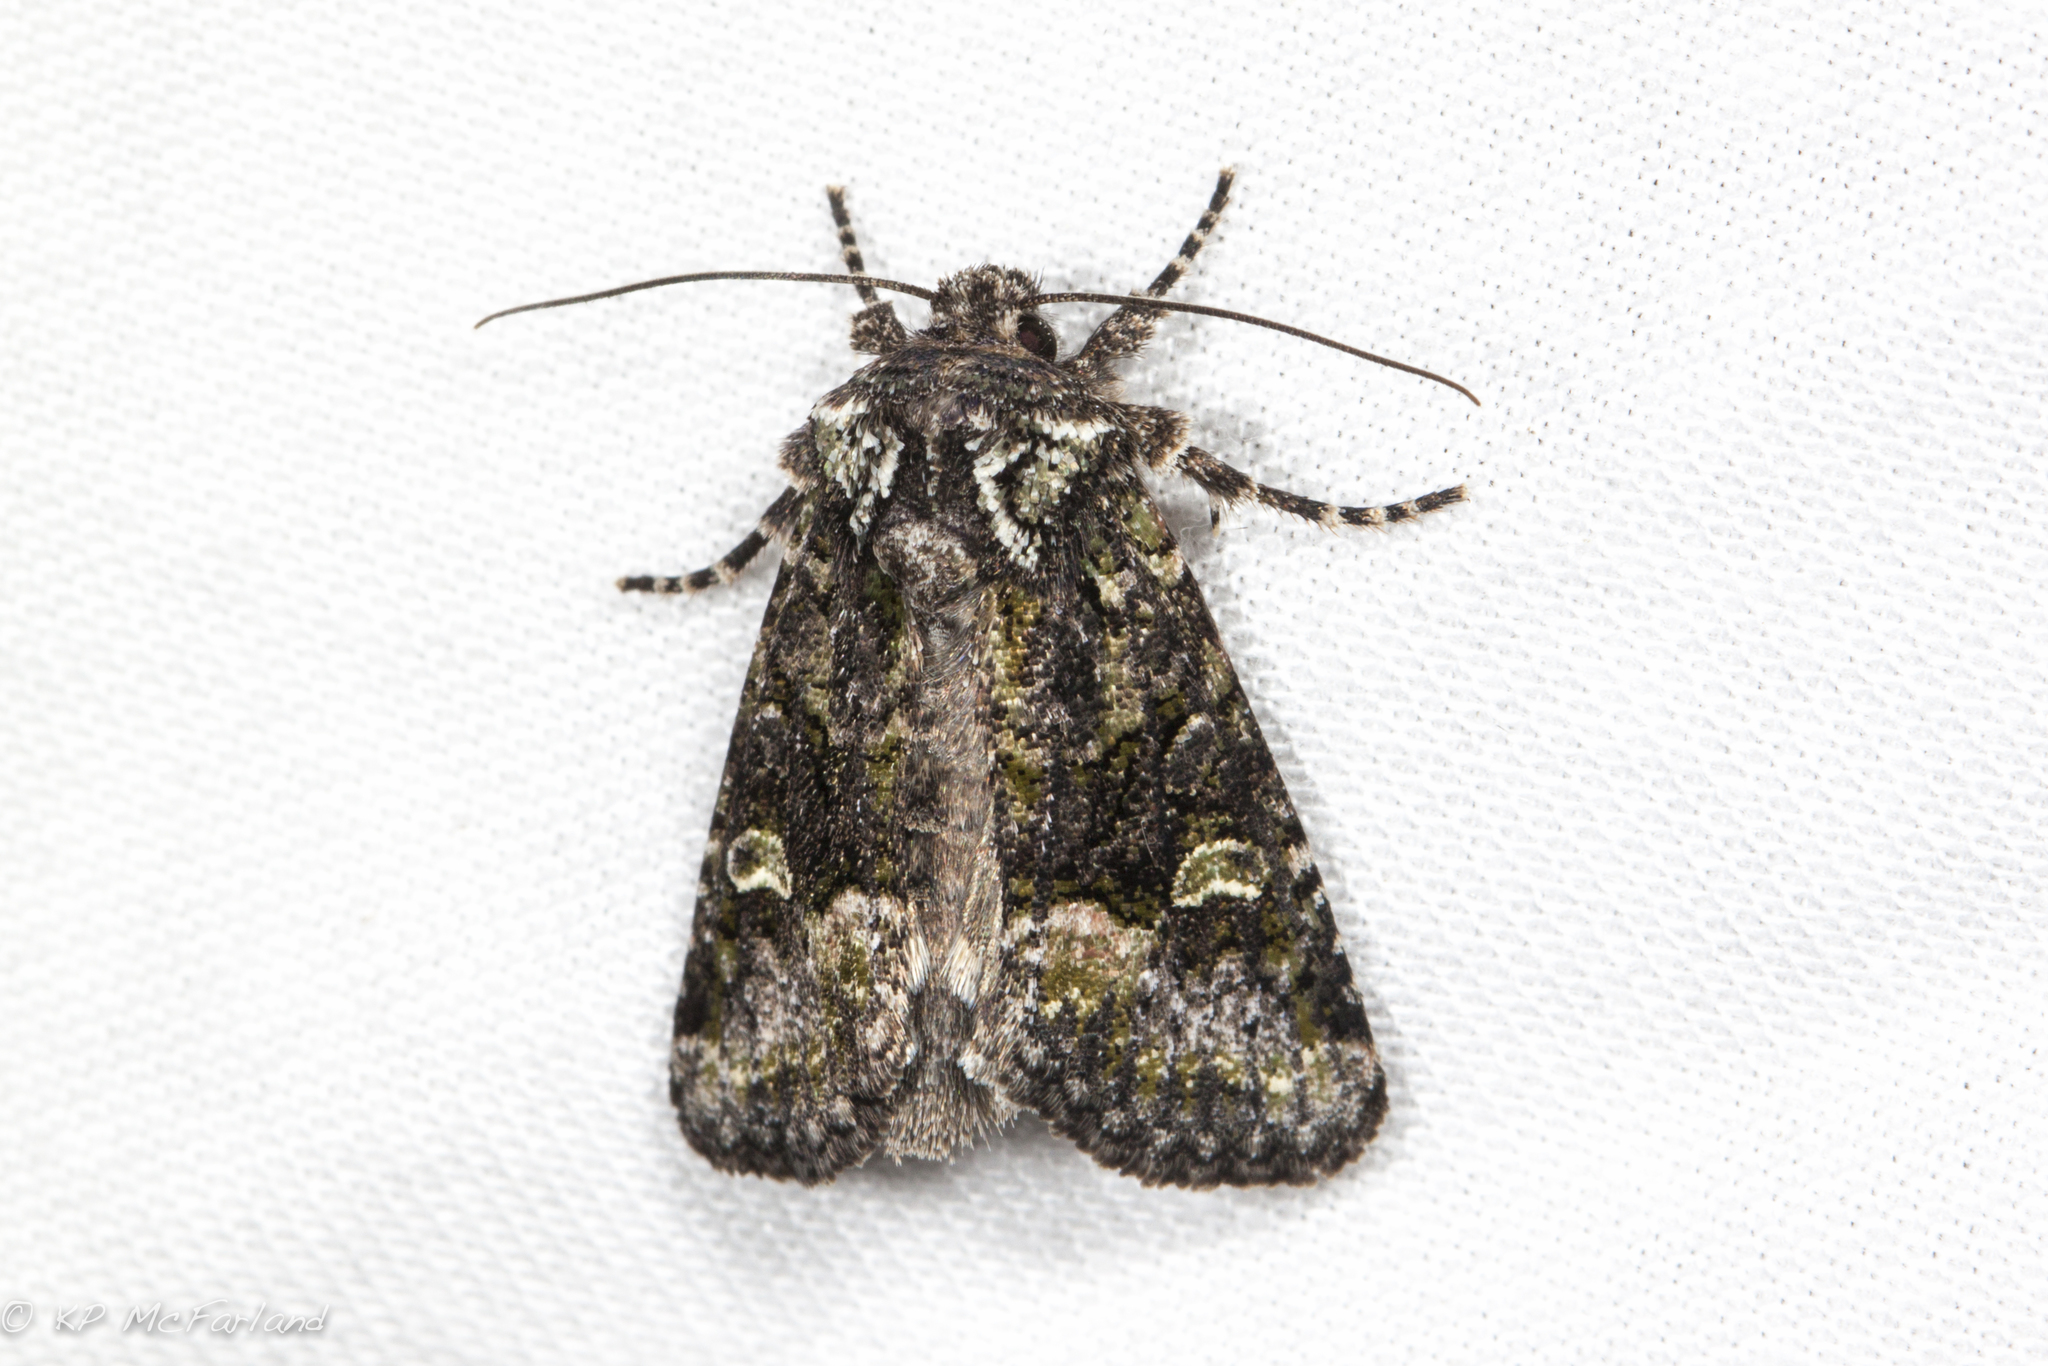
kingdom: Animalia
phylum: Arthropoda
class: Insecta
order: Lepidoptera
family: Noctuidae
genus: Lacinipolia
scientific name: Lacinipolia olivacea
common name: Olive arches moth
